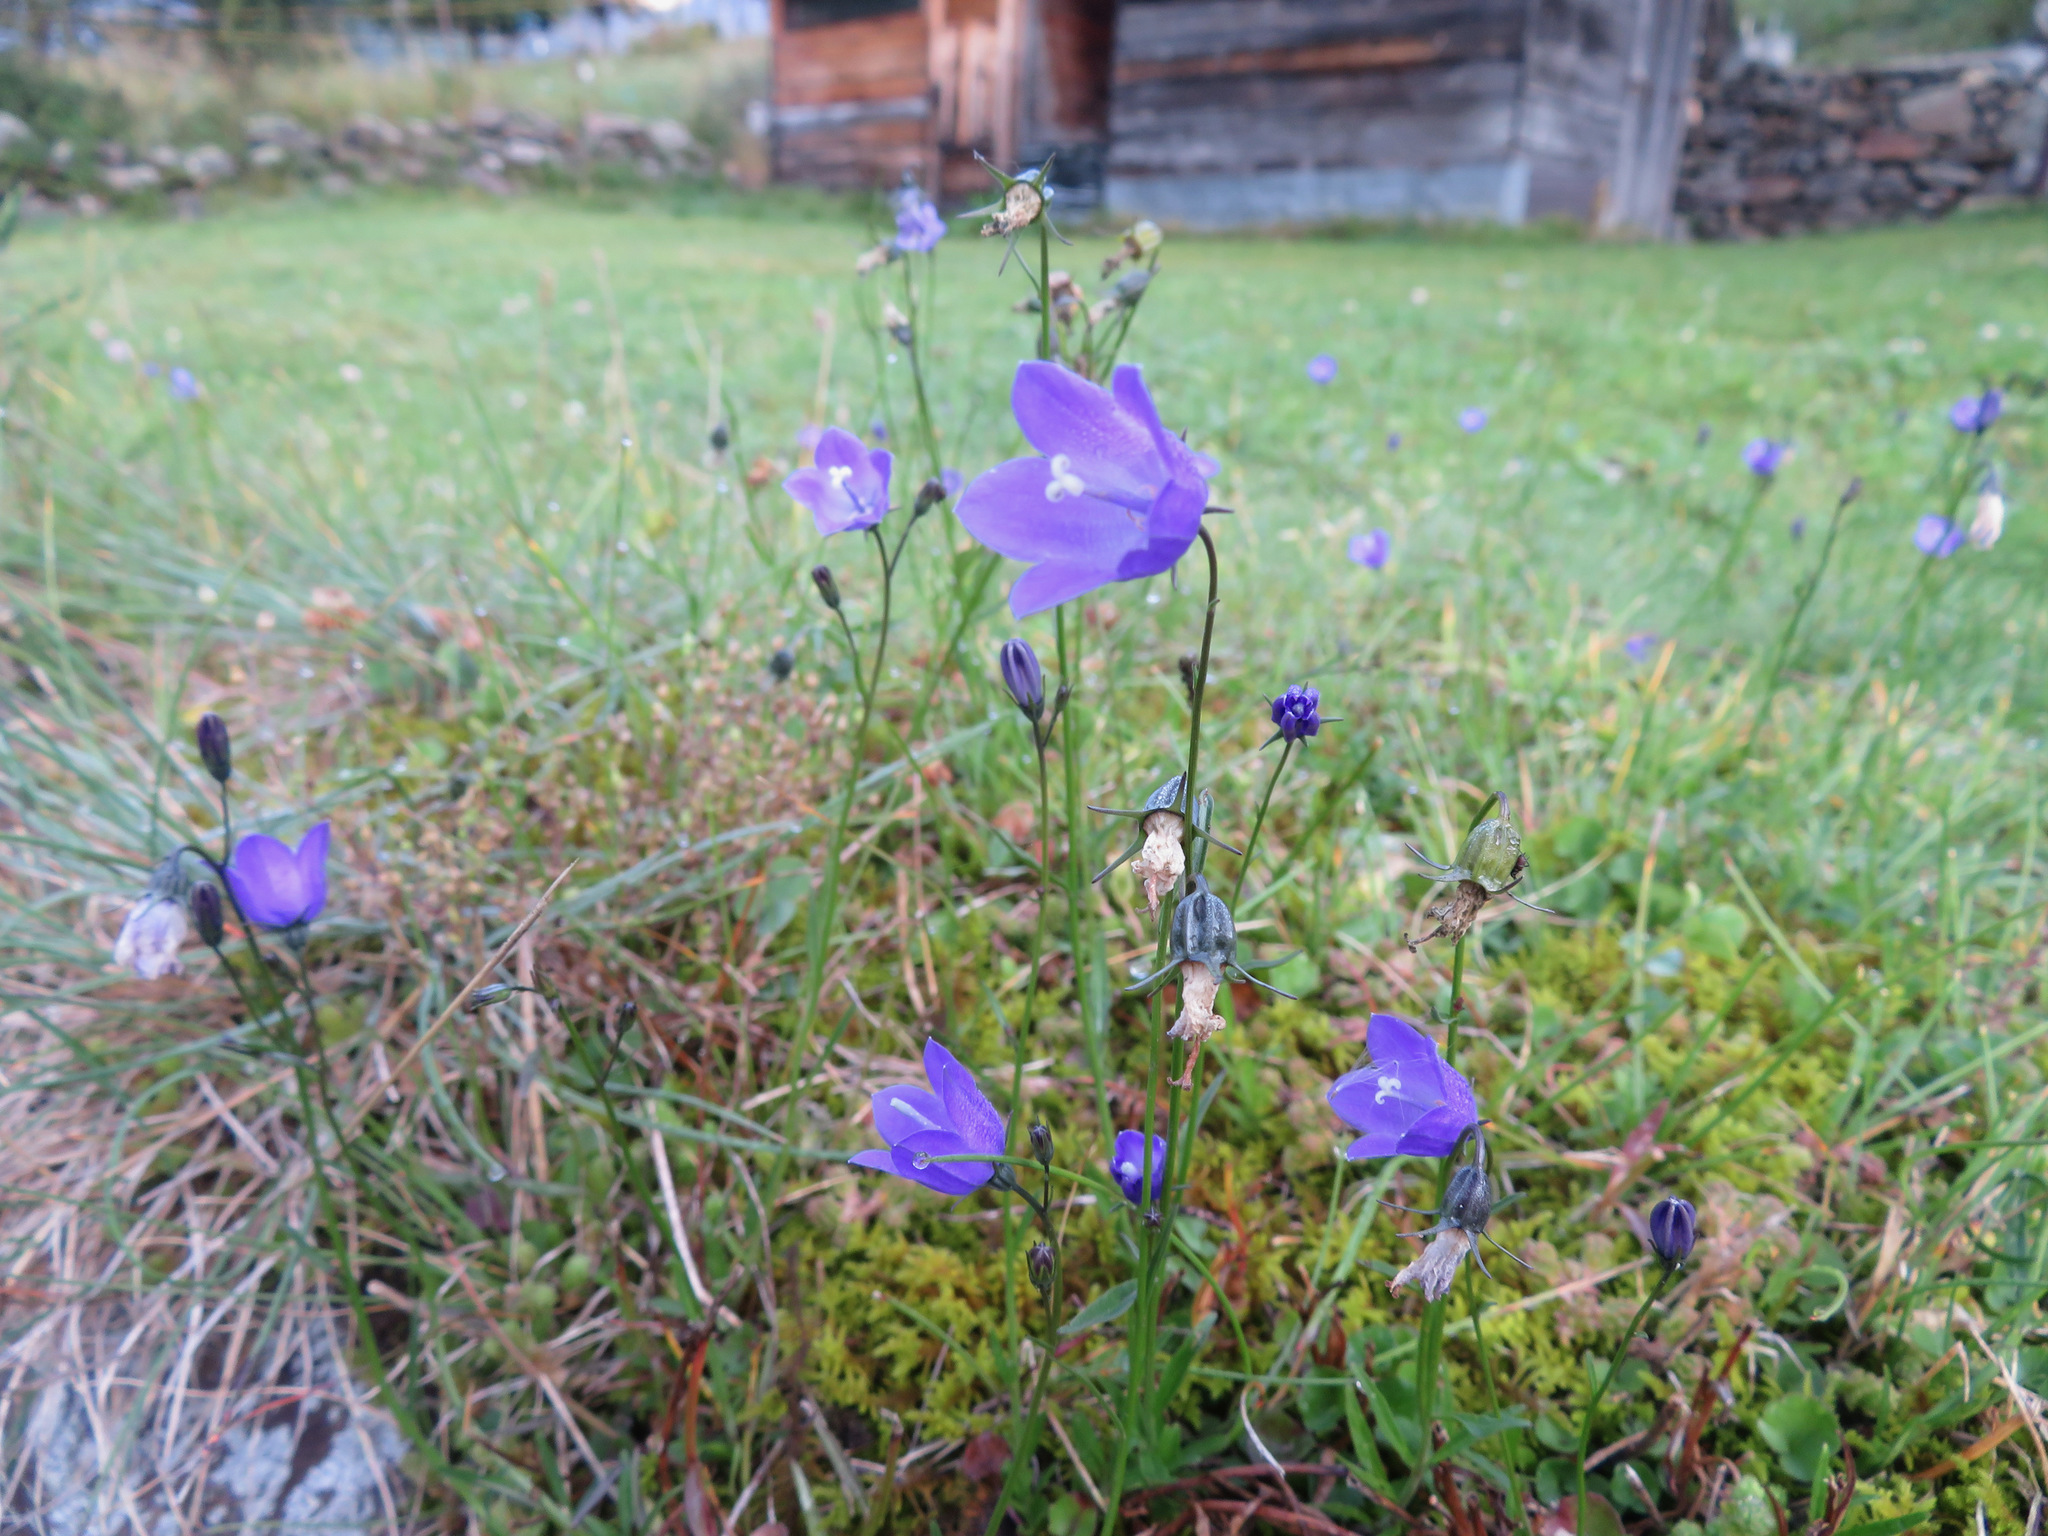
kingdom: Plantae
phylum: Tracheophyta
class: Magnoliopsida
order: Asterales
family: Campanulaceae
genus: Campanula
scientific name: Campanula rotundifolia
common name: Harebell
